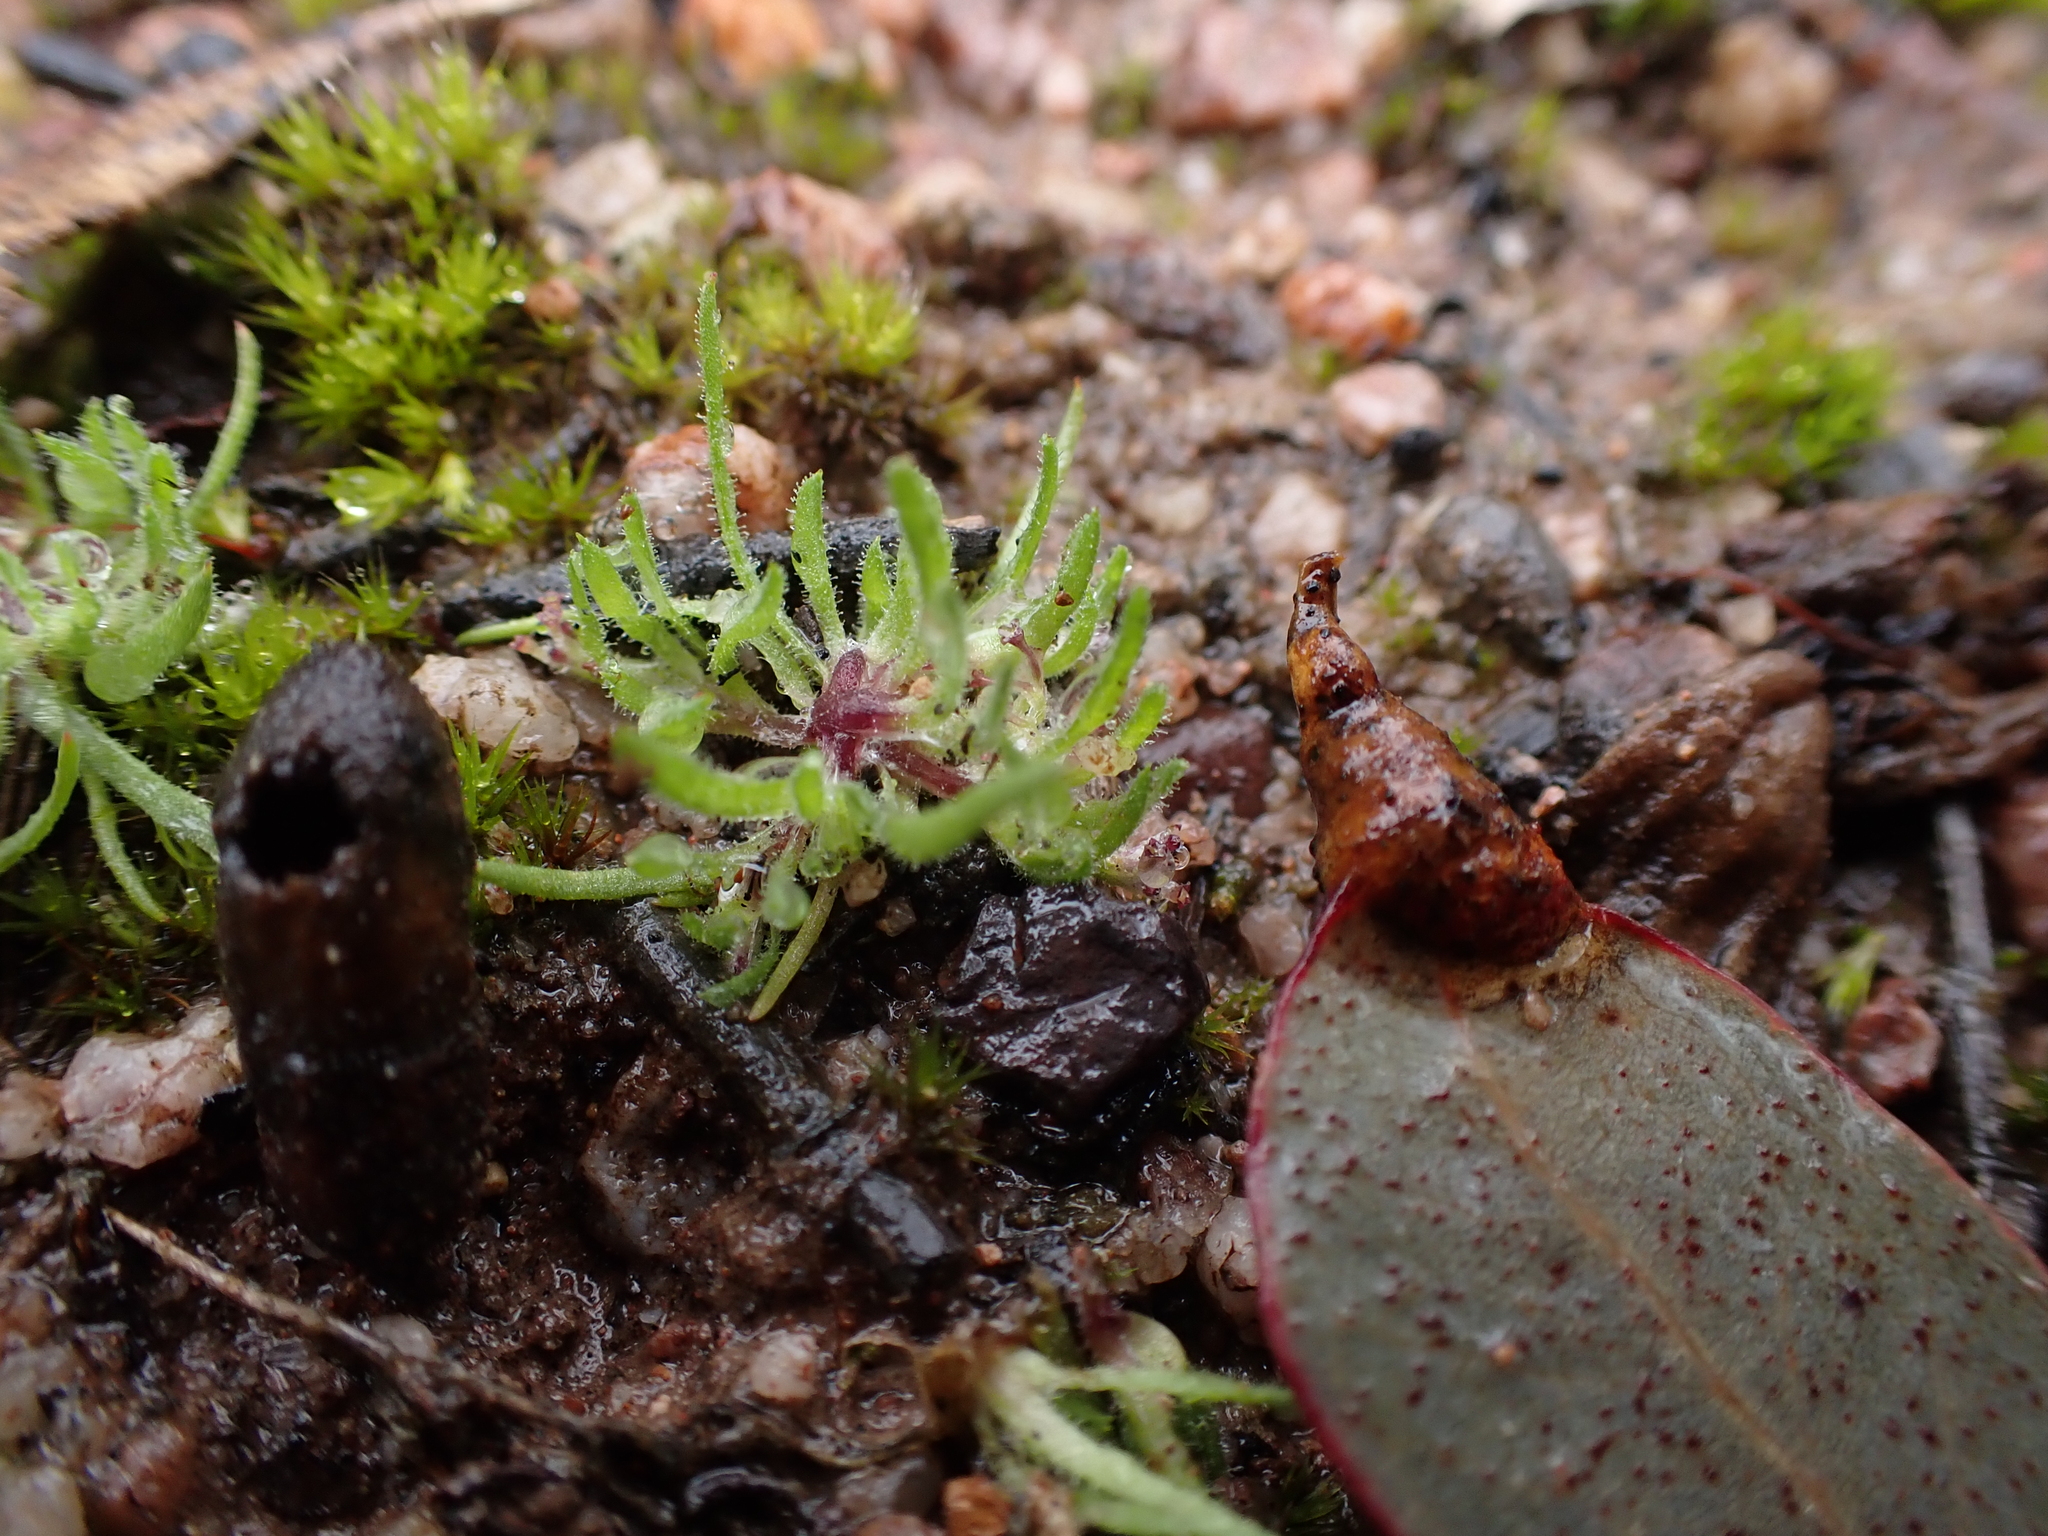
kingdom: Plantae
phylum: Tracheophyta
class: Magnoliopsida
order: Asterales
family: Asteraceae
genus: Millotia
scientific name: Millotia perpusilla
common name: Tiny bow-flower
